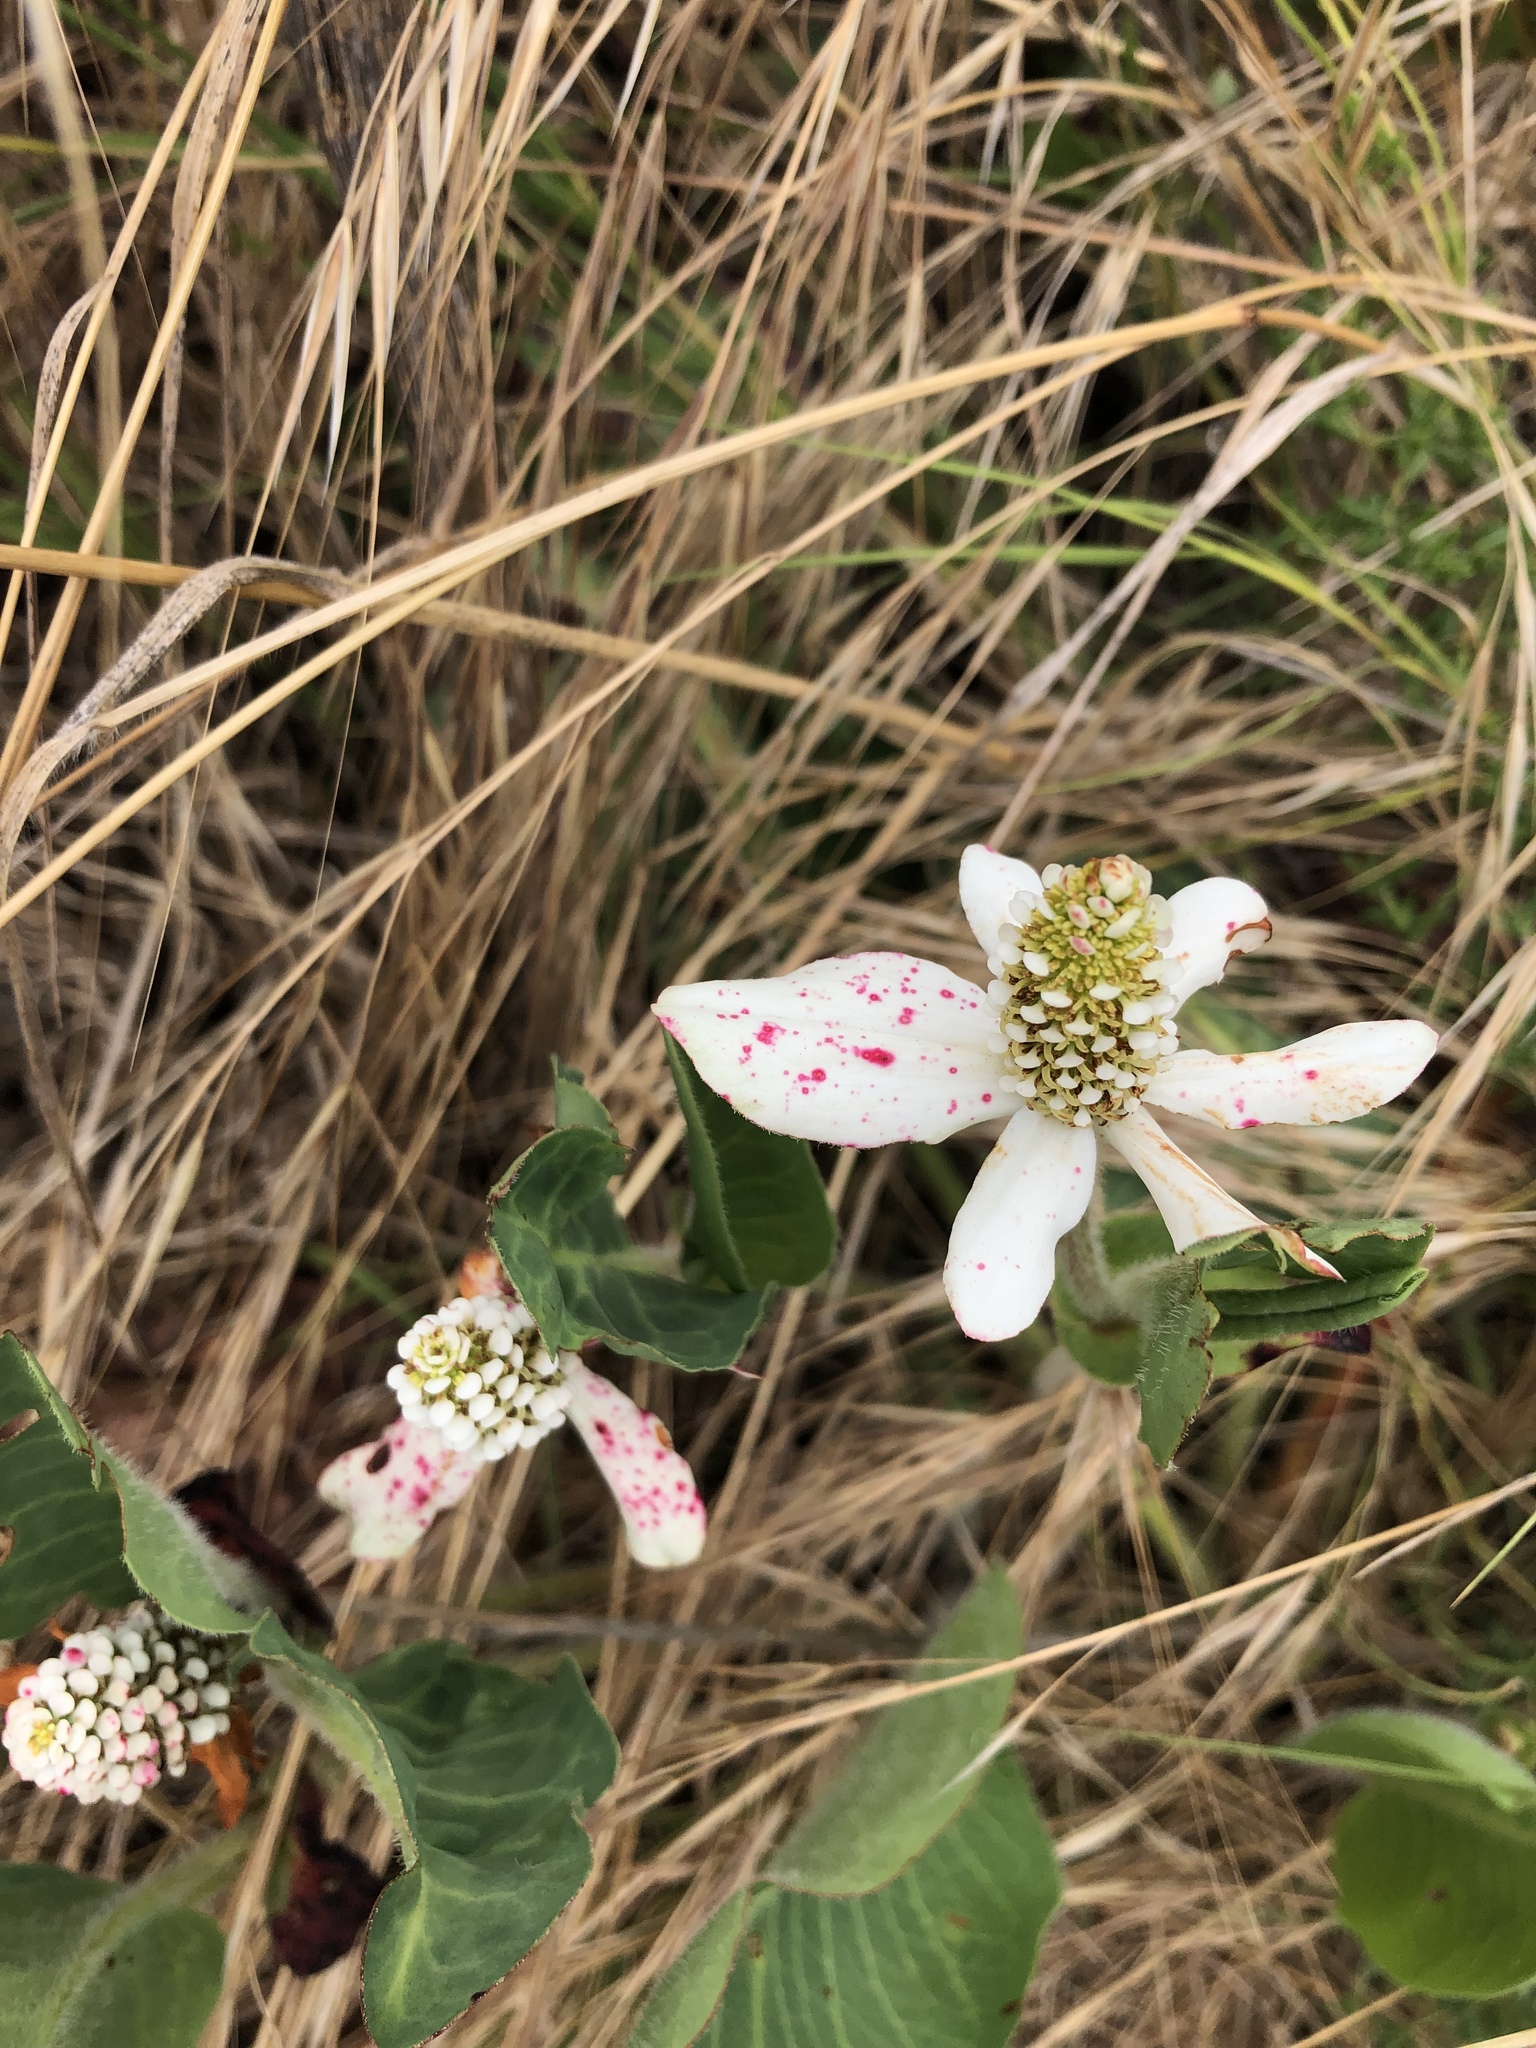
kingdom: Plantae
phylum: Tracheophyta
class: Magnoliopsida
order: Piperales
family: Saururaceae
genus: Anemopsis
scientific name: Anemopsis californica
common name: Apache-beads
